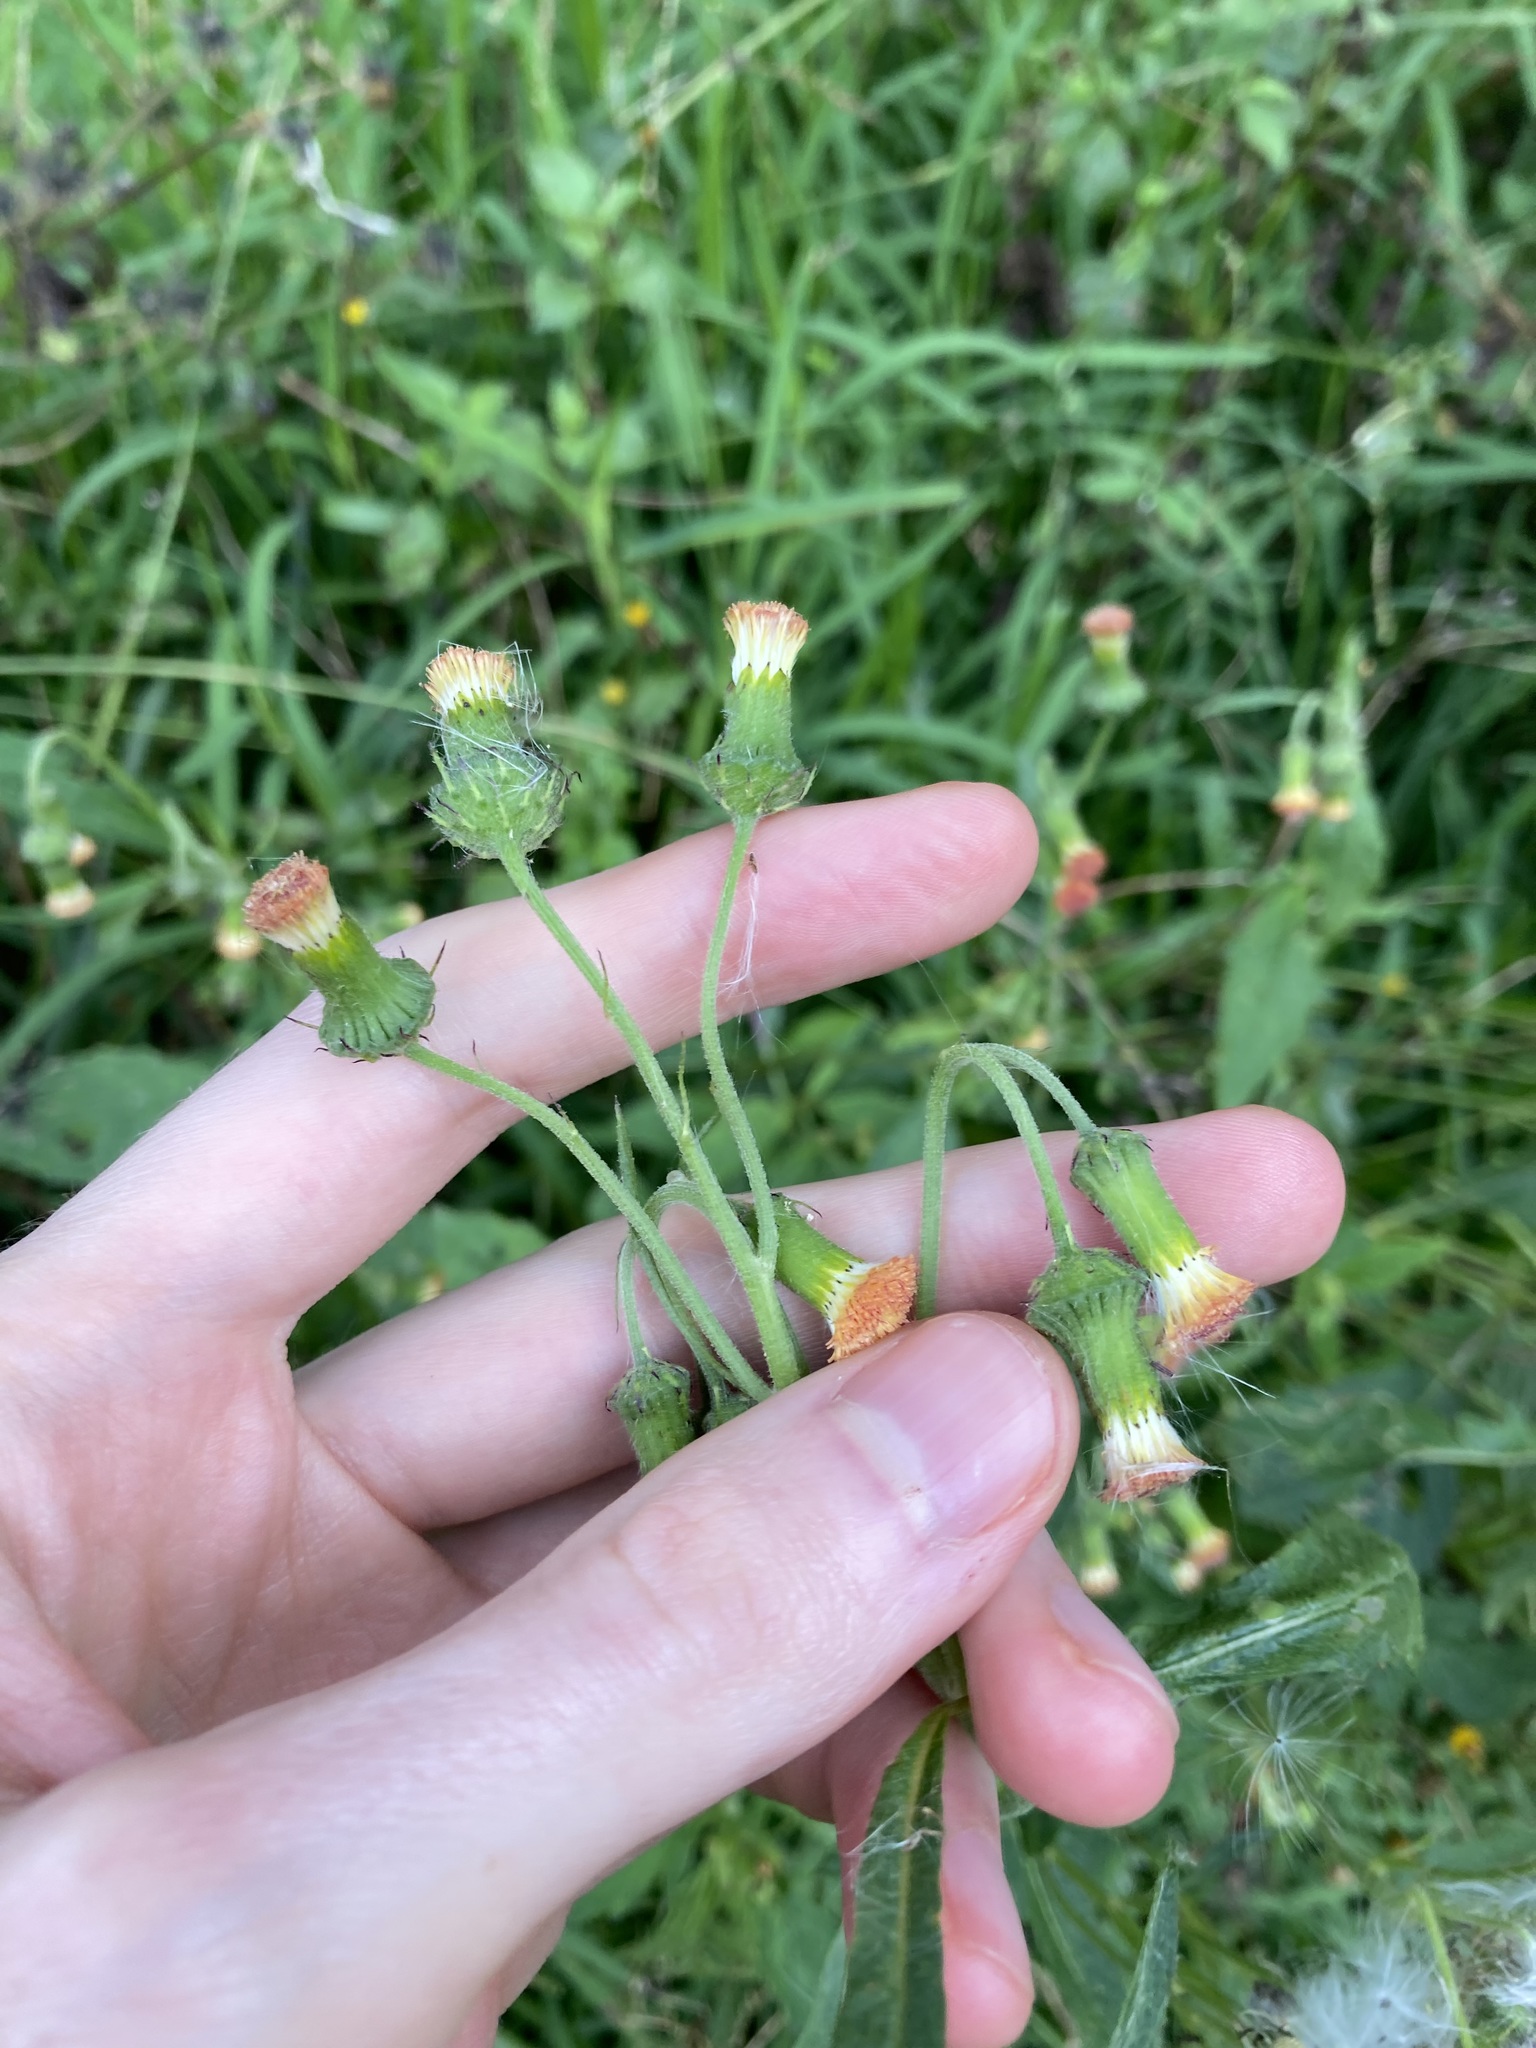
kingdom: Plantae
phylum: Tracheophyta
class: Magnoliopsida
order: Asterales
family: Asteraceae
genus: Crassocephalum
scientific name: Crassocephalum crepidioides
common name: Redflower ragleaf
